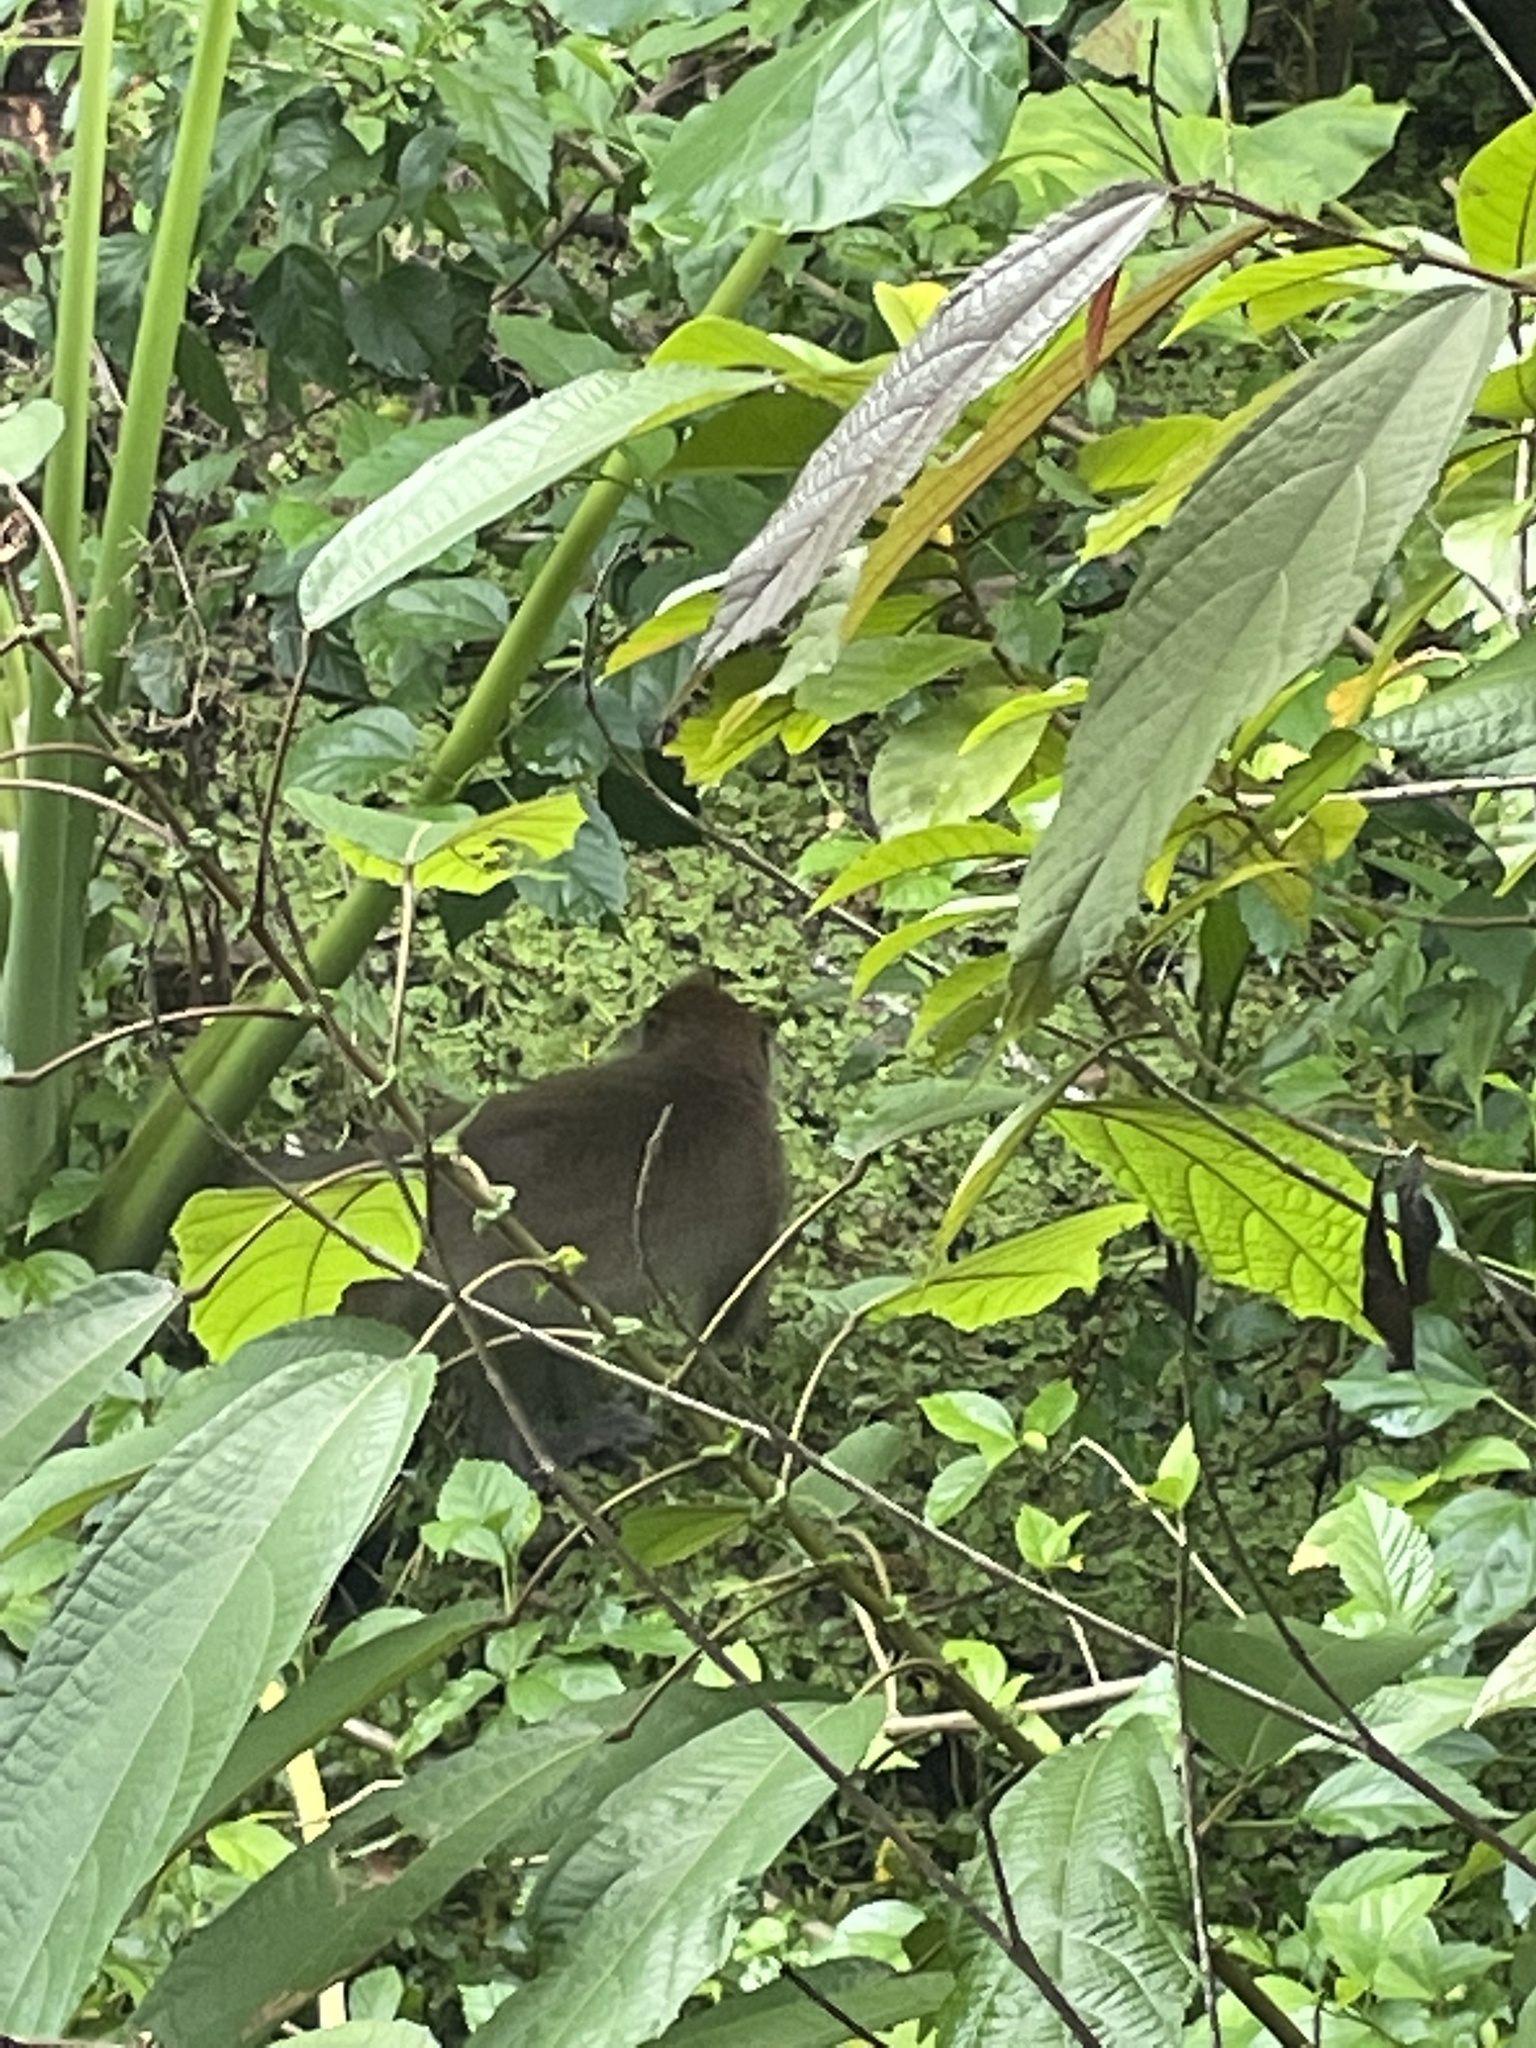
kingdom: Animalia
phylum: Chordata
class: Mammalia
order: Primates
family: Cercopithecidae
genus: Macaca
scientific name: Macaca fascicularis
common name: Crab-eating macaque
